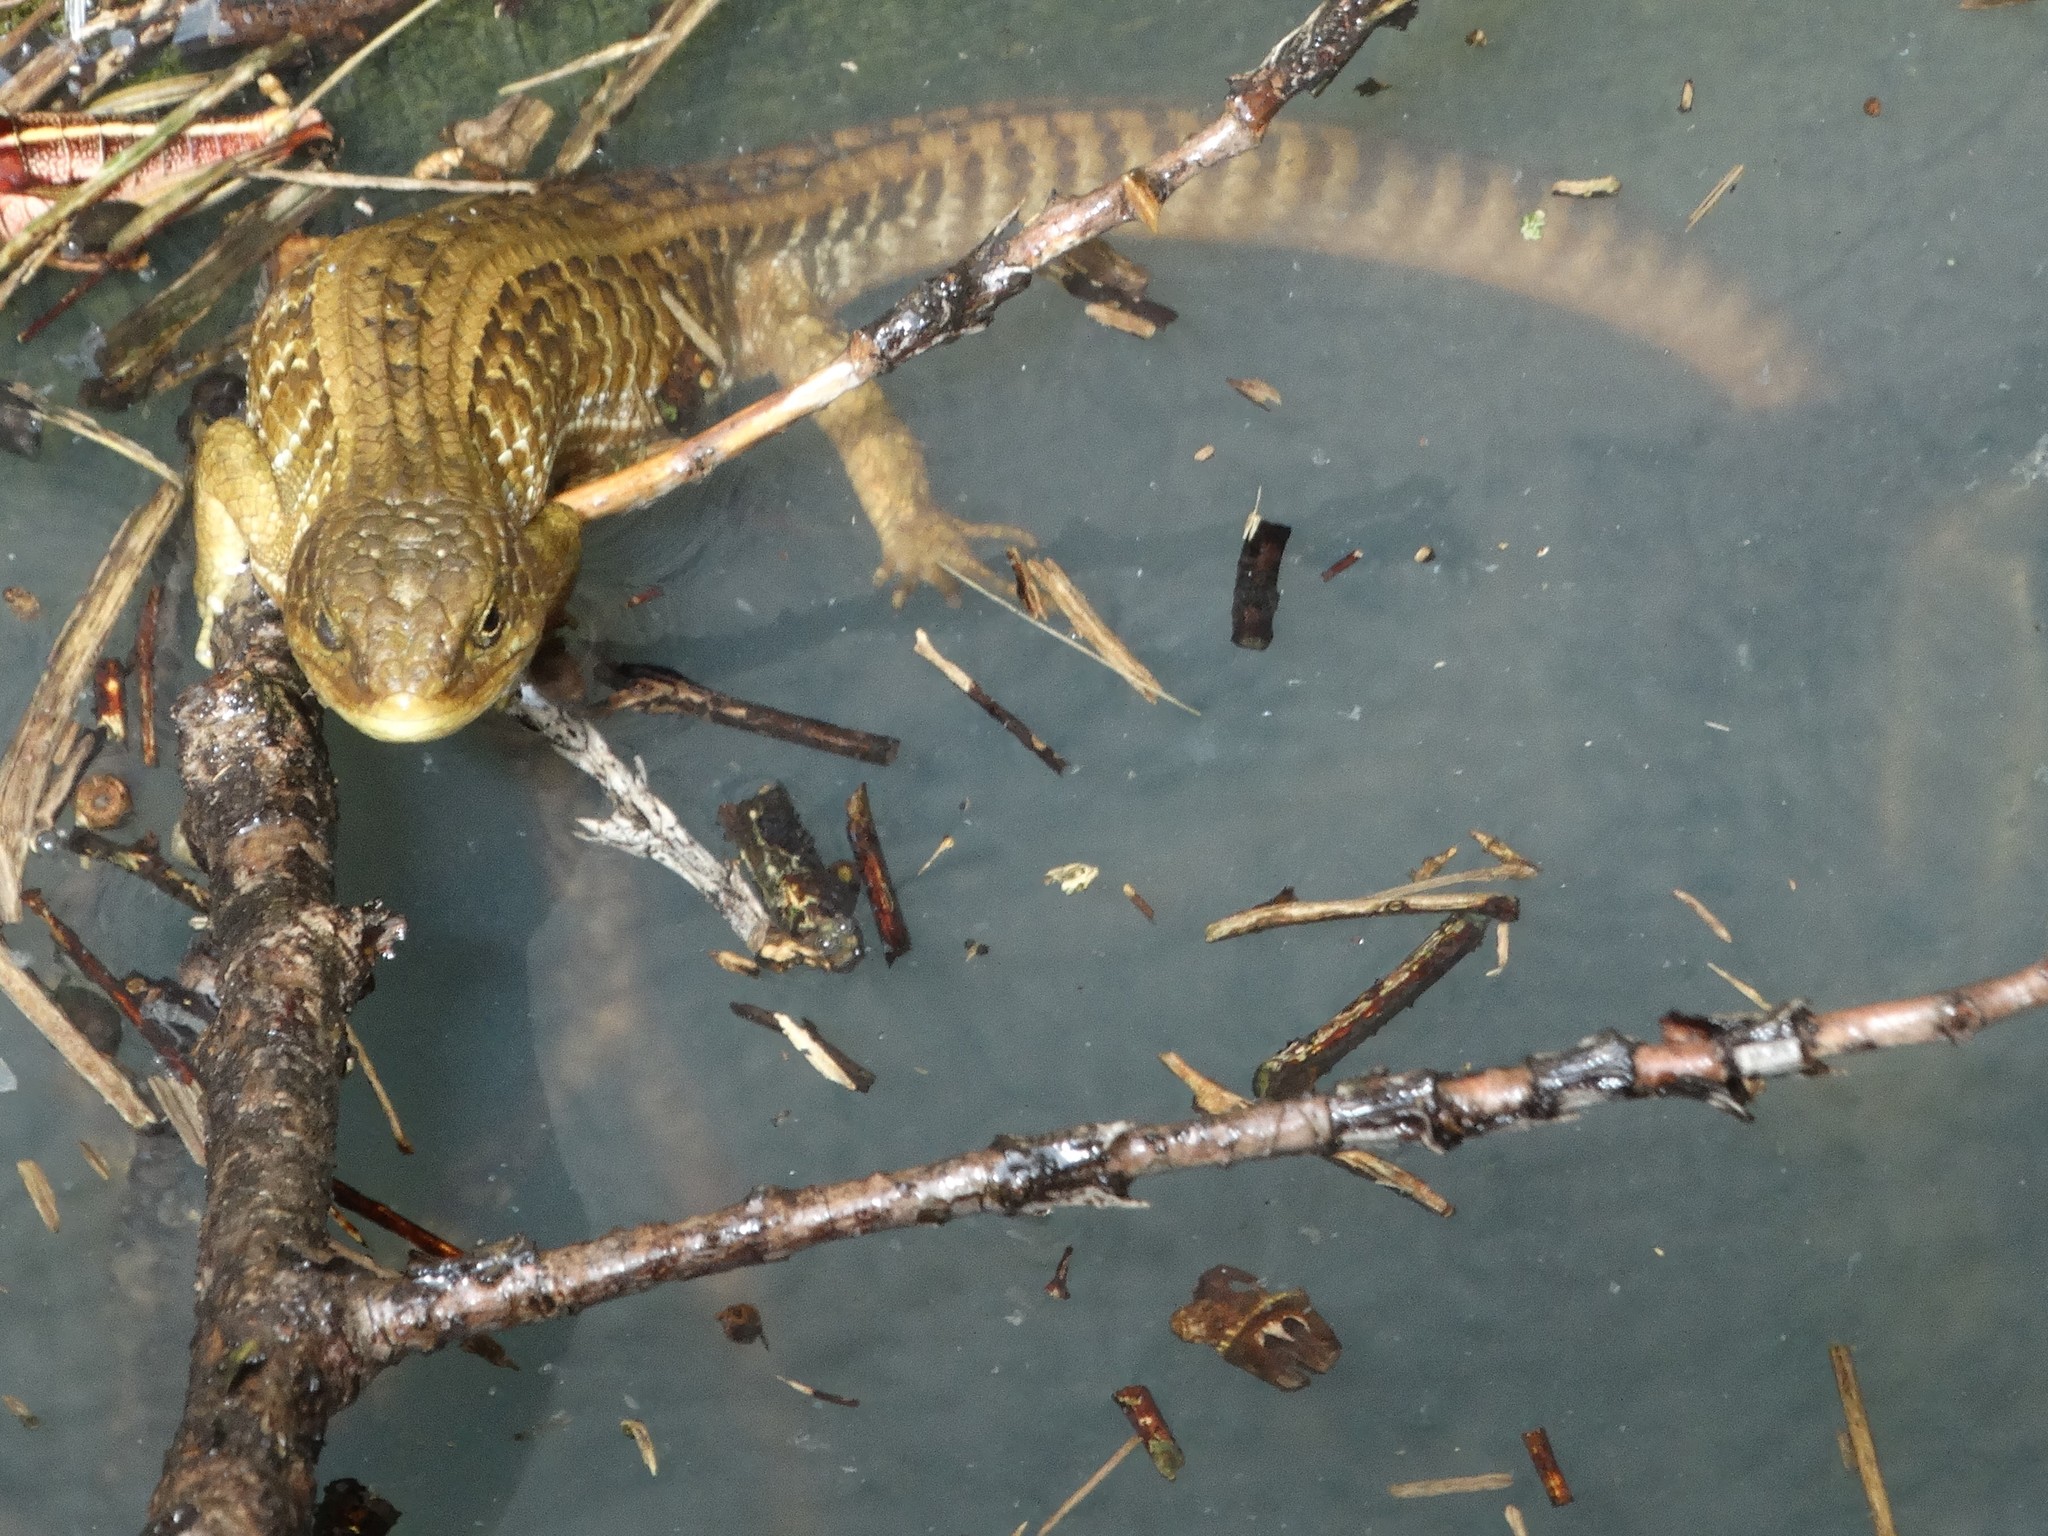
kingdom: Animalia
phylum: Chordata
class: Squamata
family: Anguidae
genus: Barisia
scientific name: Barisia imbricata
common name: Imbricate alligator lizard
